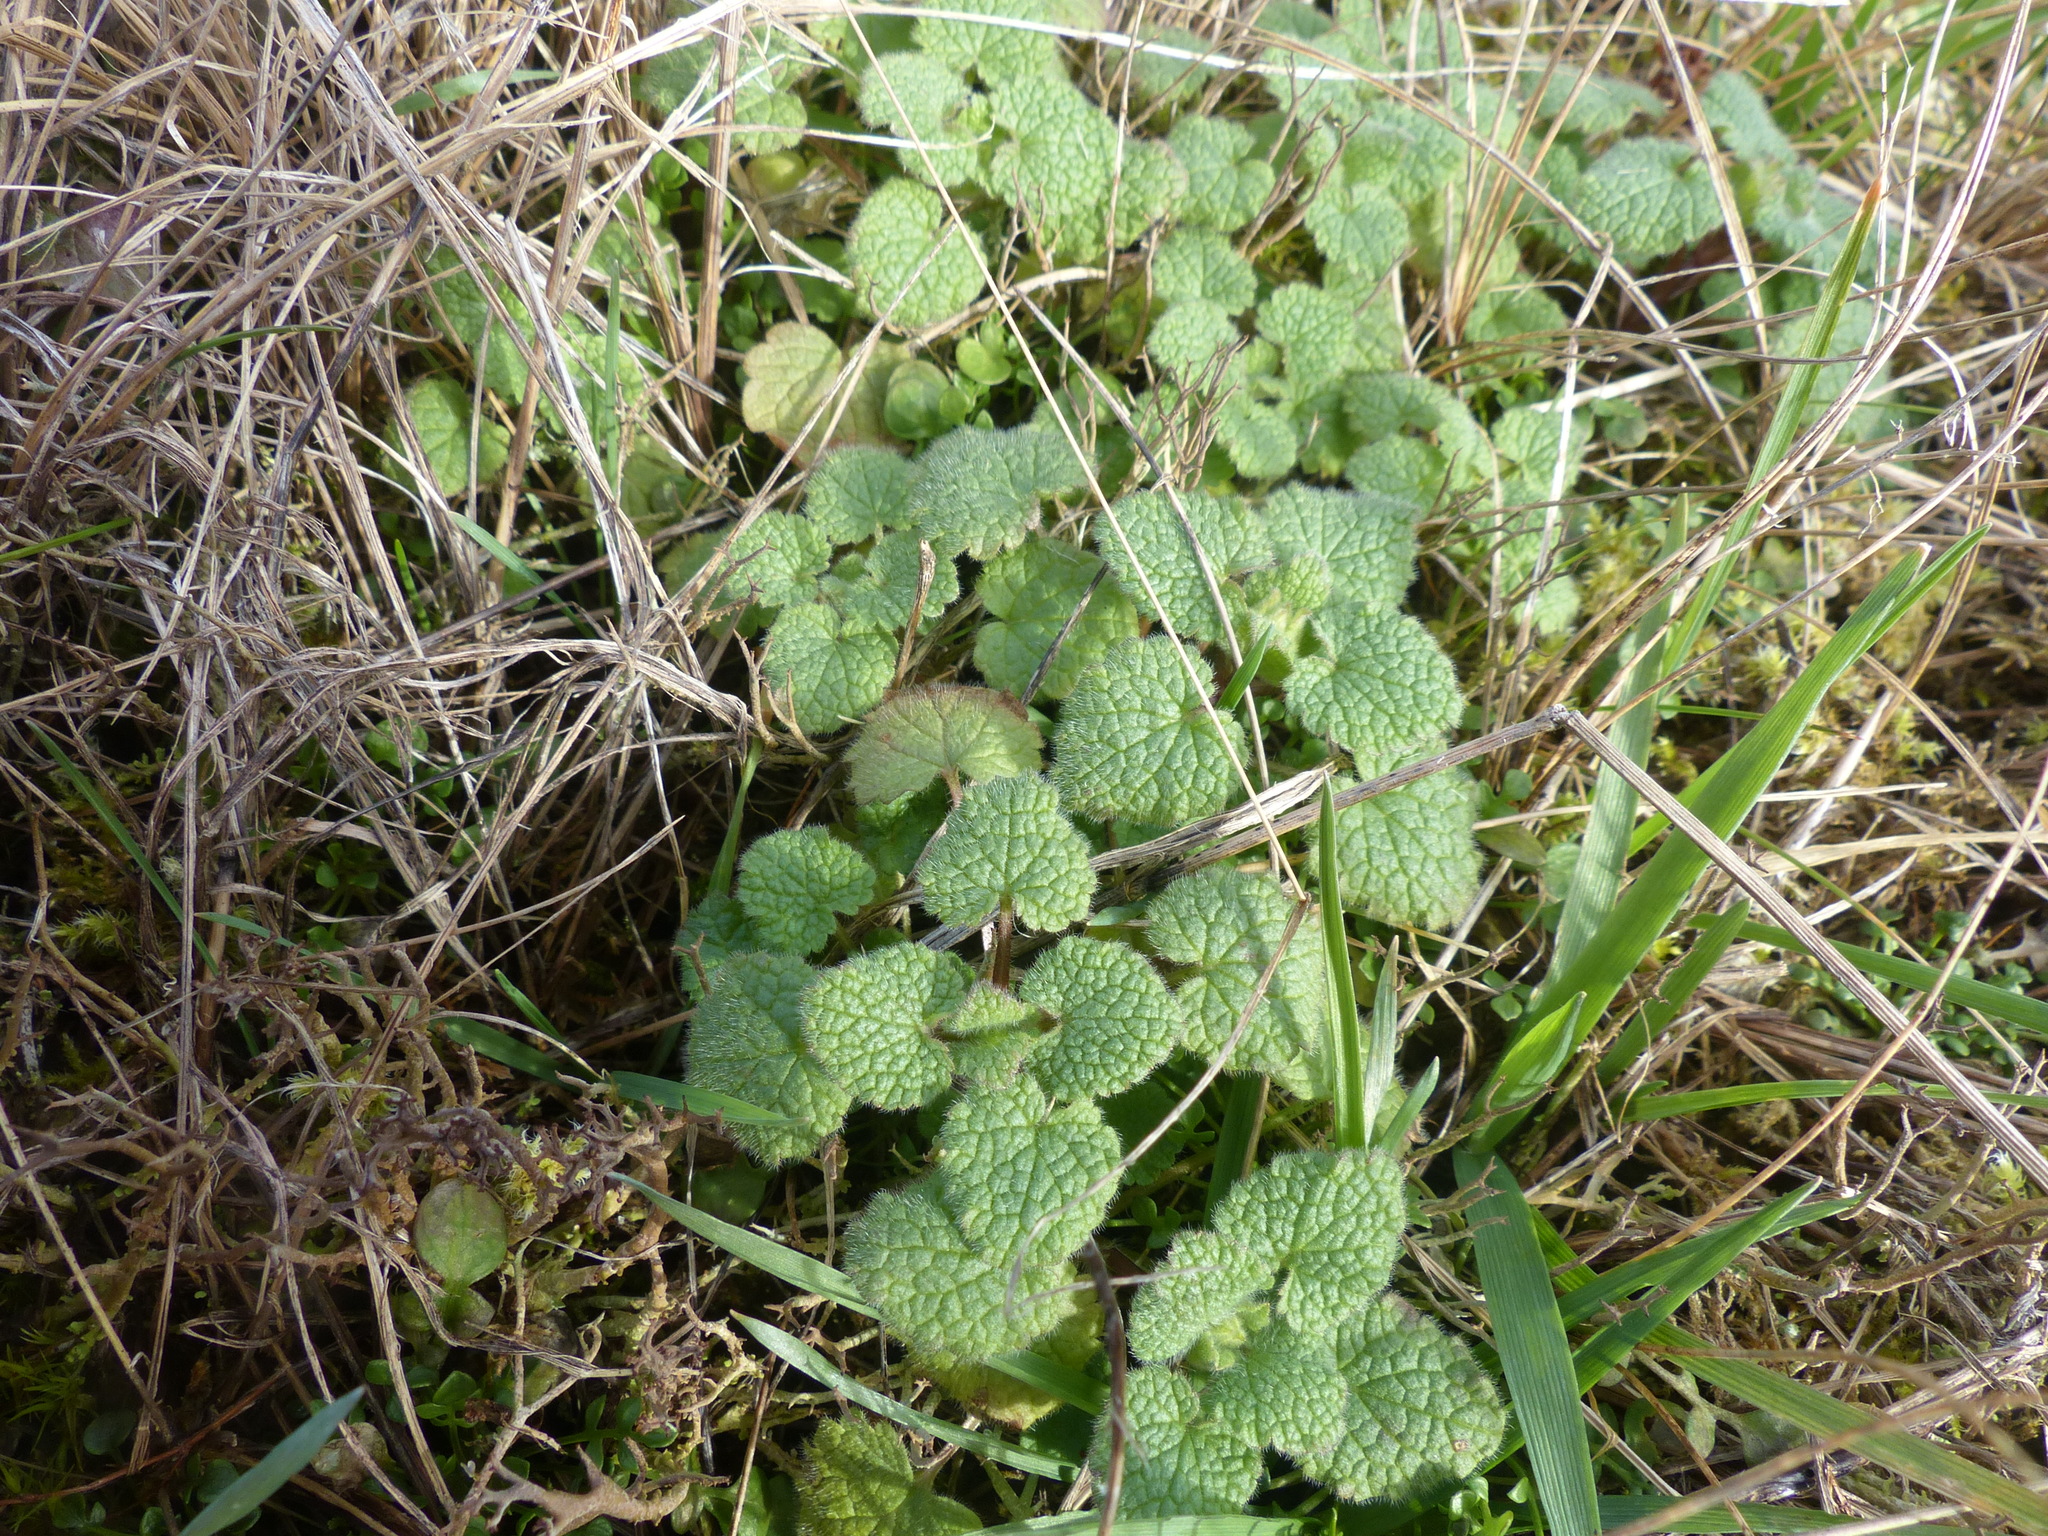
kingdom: Plantae
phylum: Tracheophyta
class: Magnoliopsida
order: Lamiales
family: Lamiaceae
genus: Lamium
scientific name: Lamium purpureum
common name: Red dead-nettle
